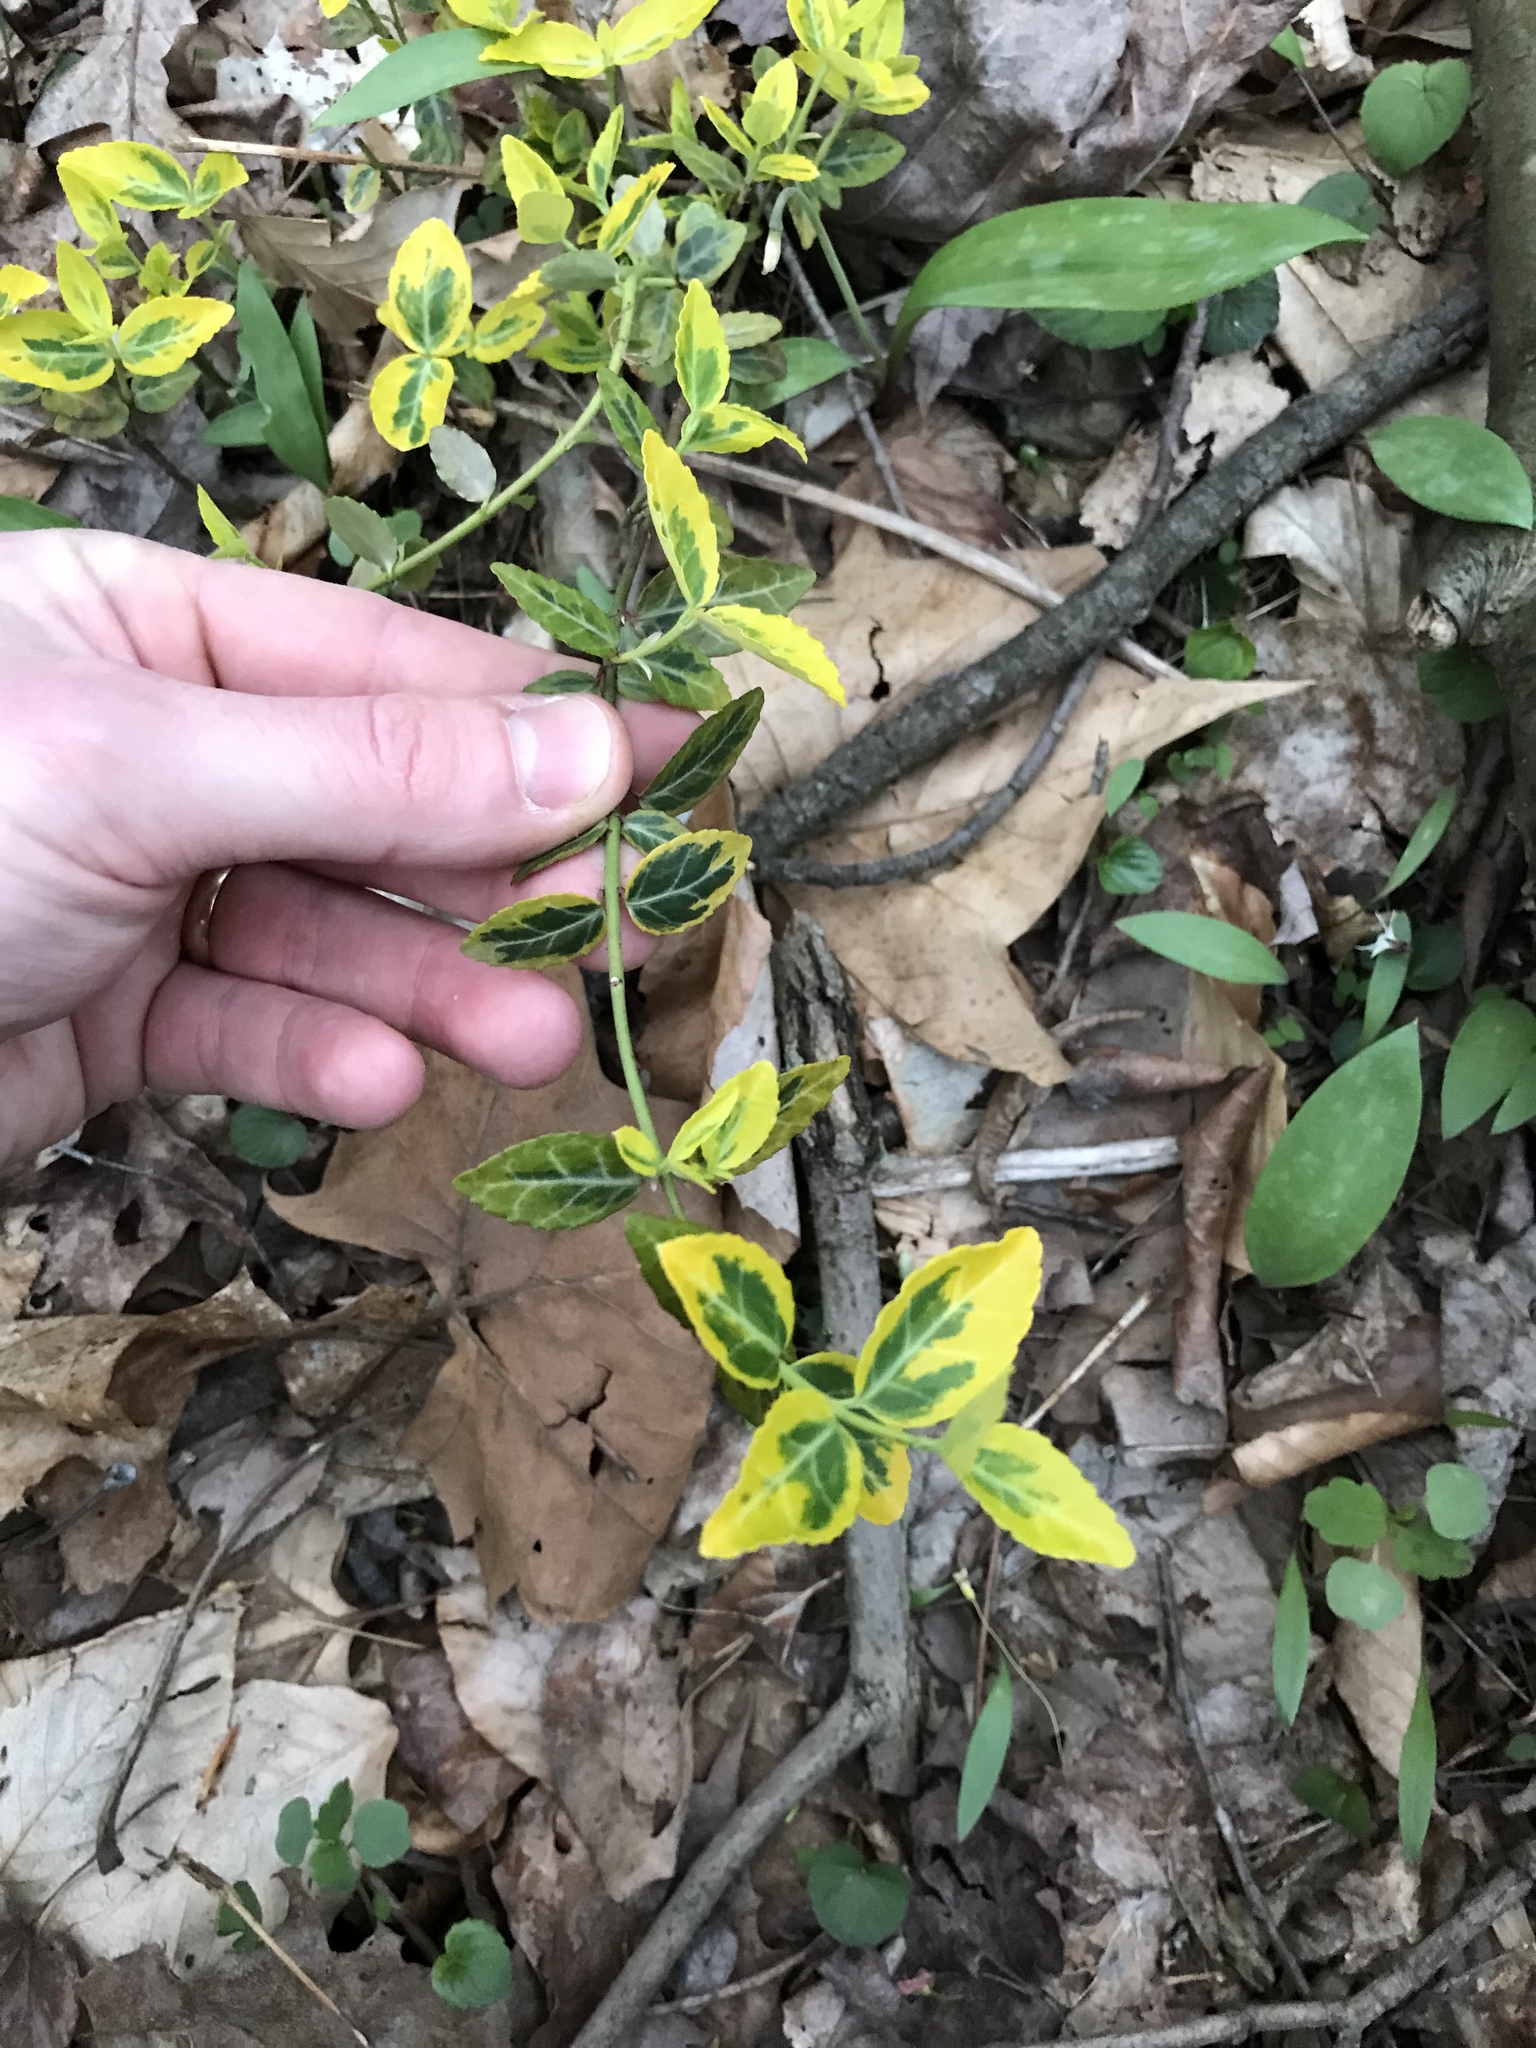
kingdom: Plantae
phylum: Tracheophyta
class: Magnoliopsida
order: Celastrales
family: Celastraceae
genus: Euonymus
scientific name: Euonymus fortunei
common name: Climbing euonymus
